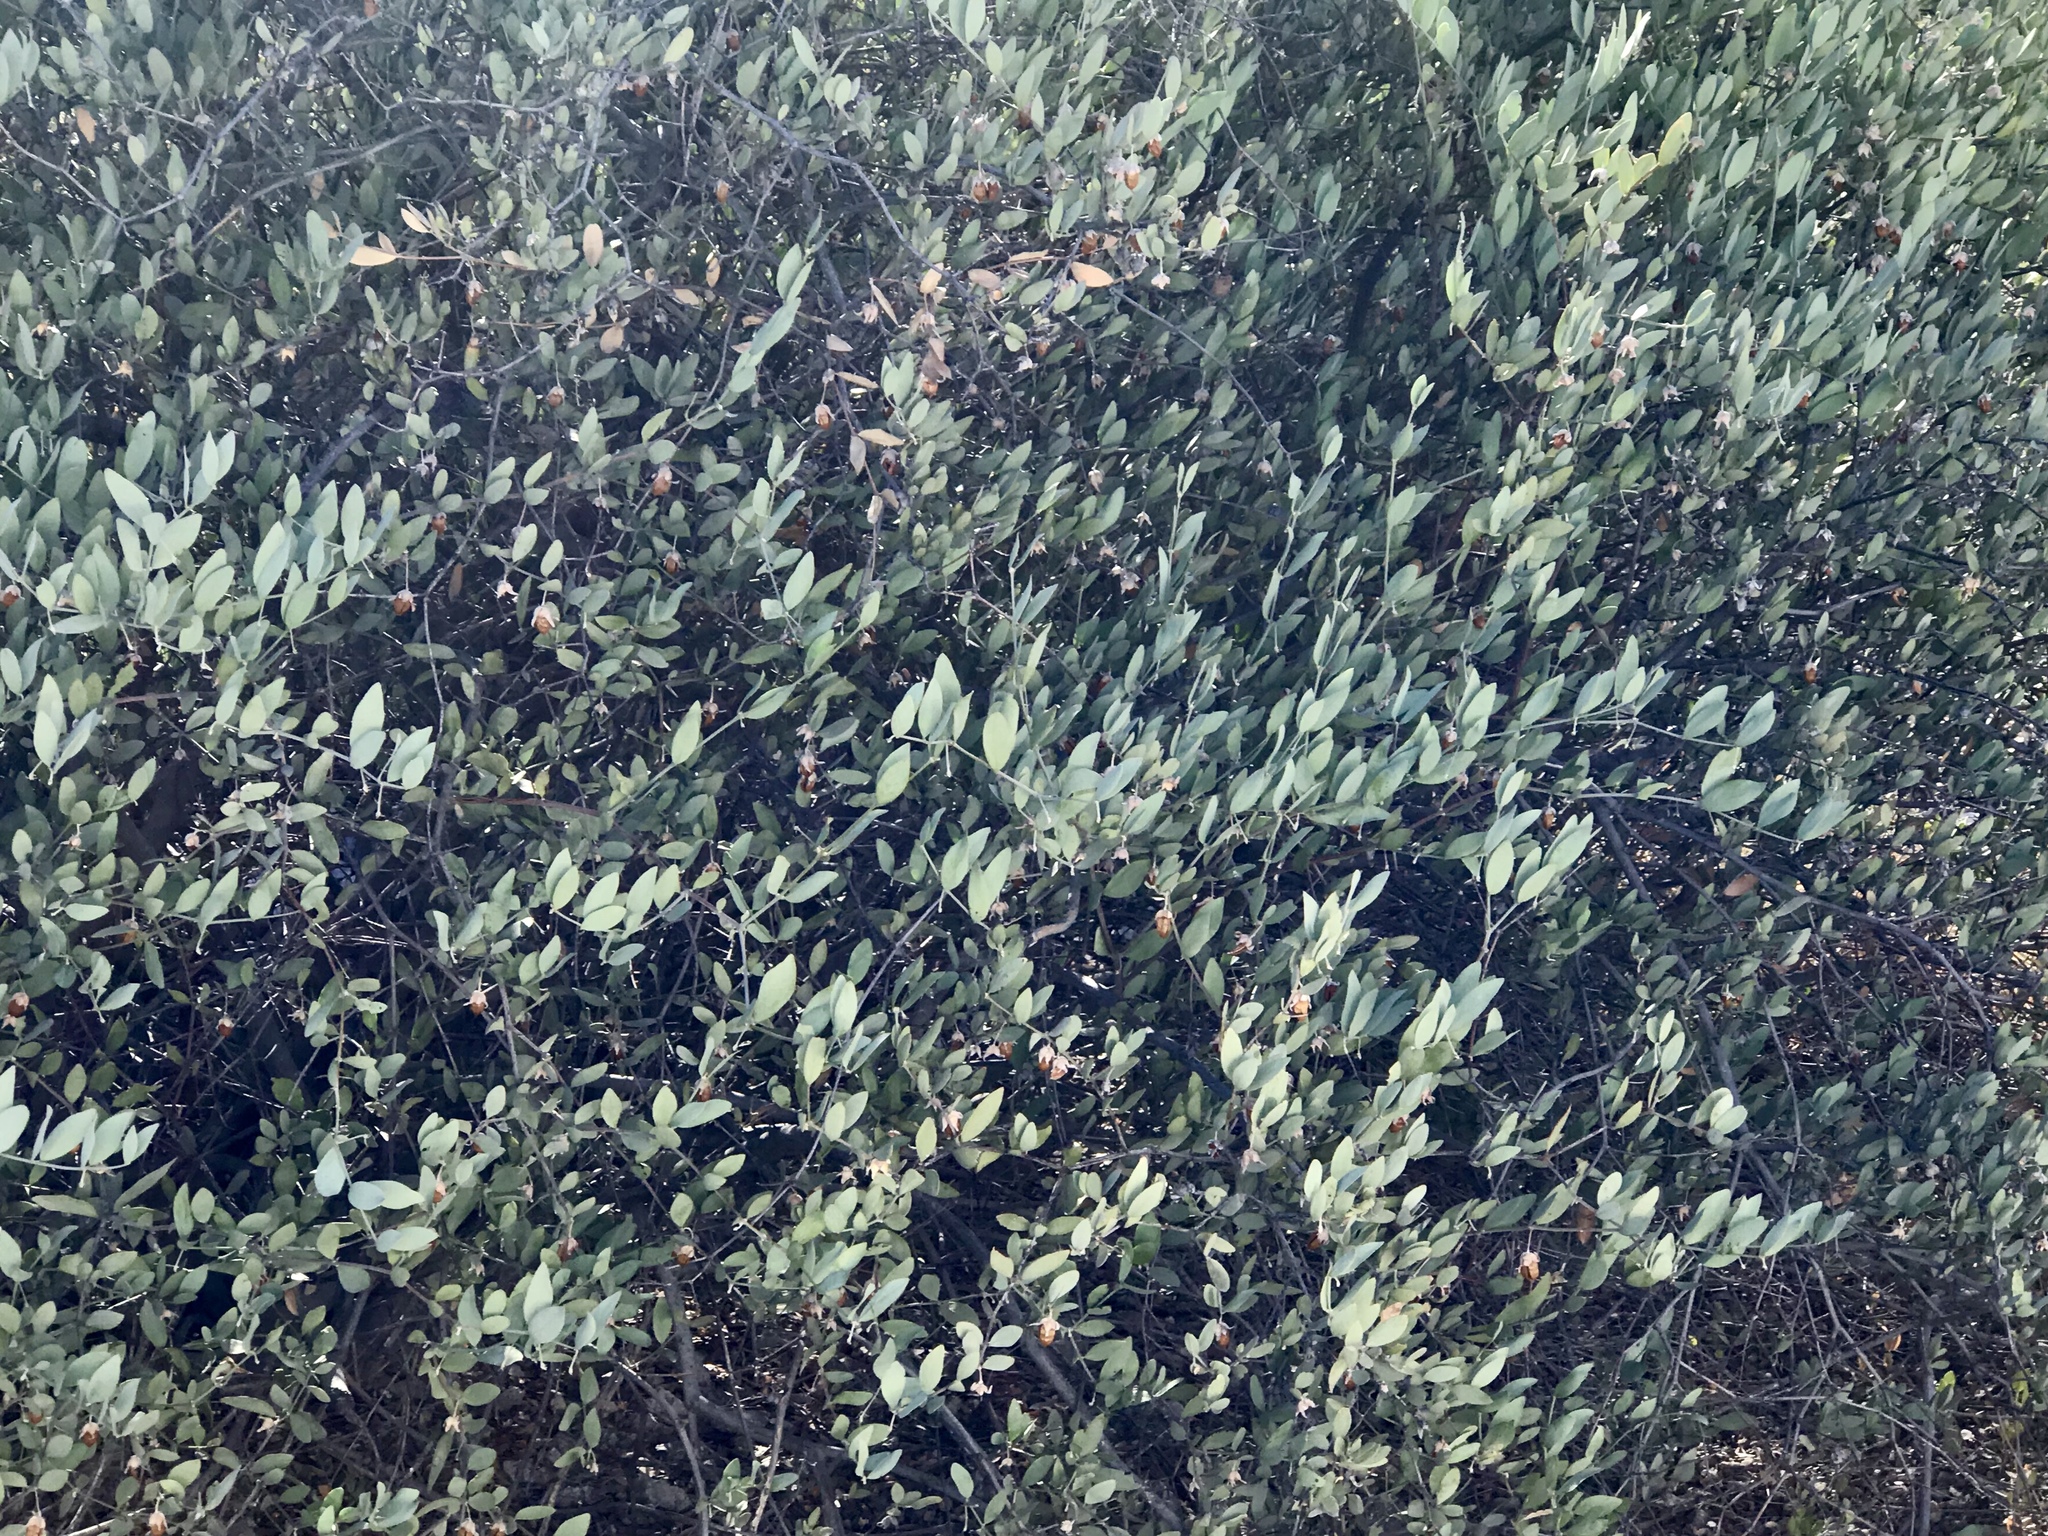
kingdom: Plantae
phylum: Tracheophyta
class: Magnoliopsida
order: Caryophyllales
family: Simmondsiaceae
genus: Simmondsia
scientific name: Simmondsia chinensis
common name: Jojoba
